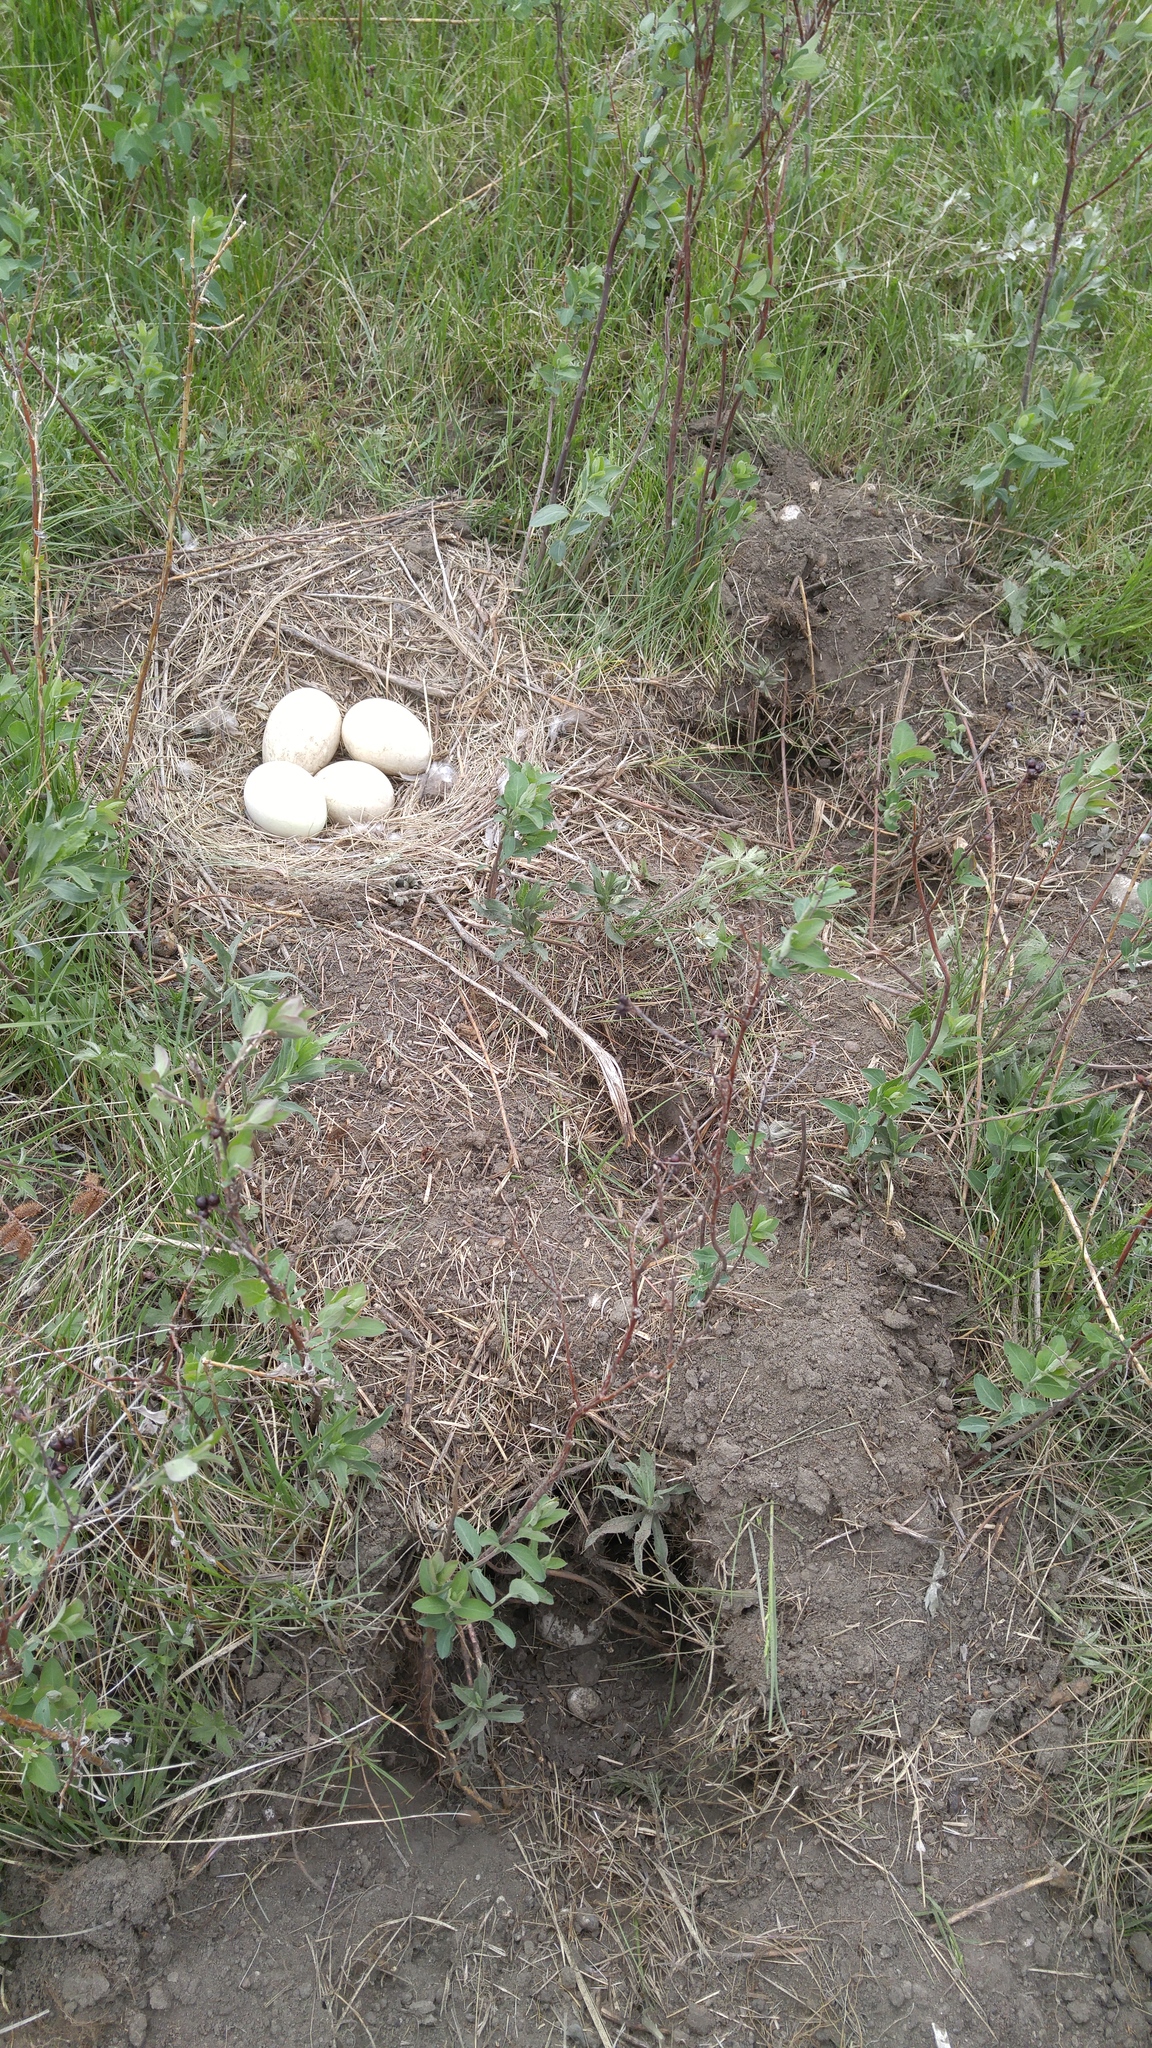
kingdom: Animalia
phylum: Chordata
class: Aves
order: Anseriformes
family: Anatidae
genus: Branta
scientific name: Branta canadensis
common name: Canada goose
